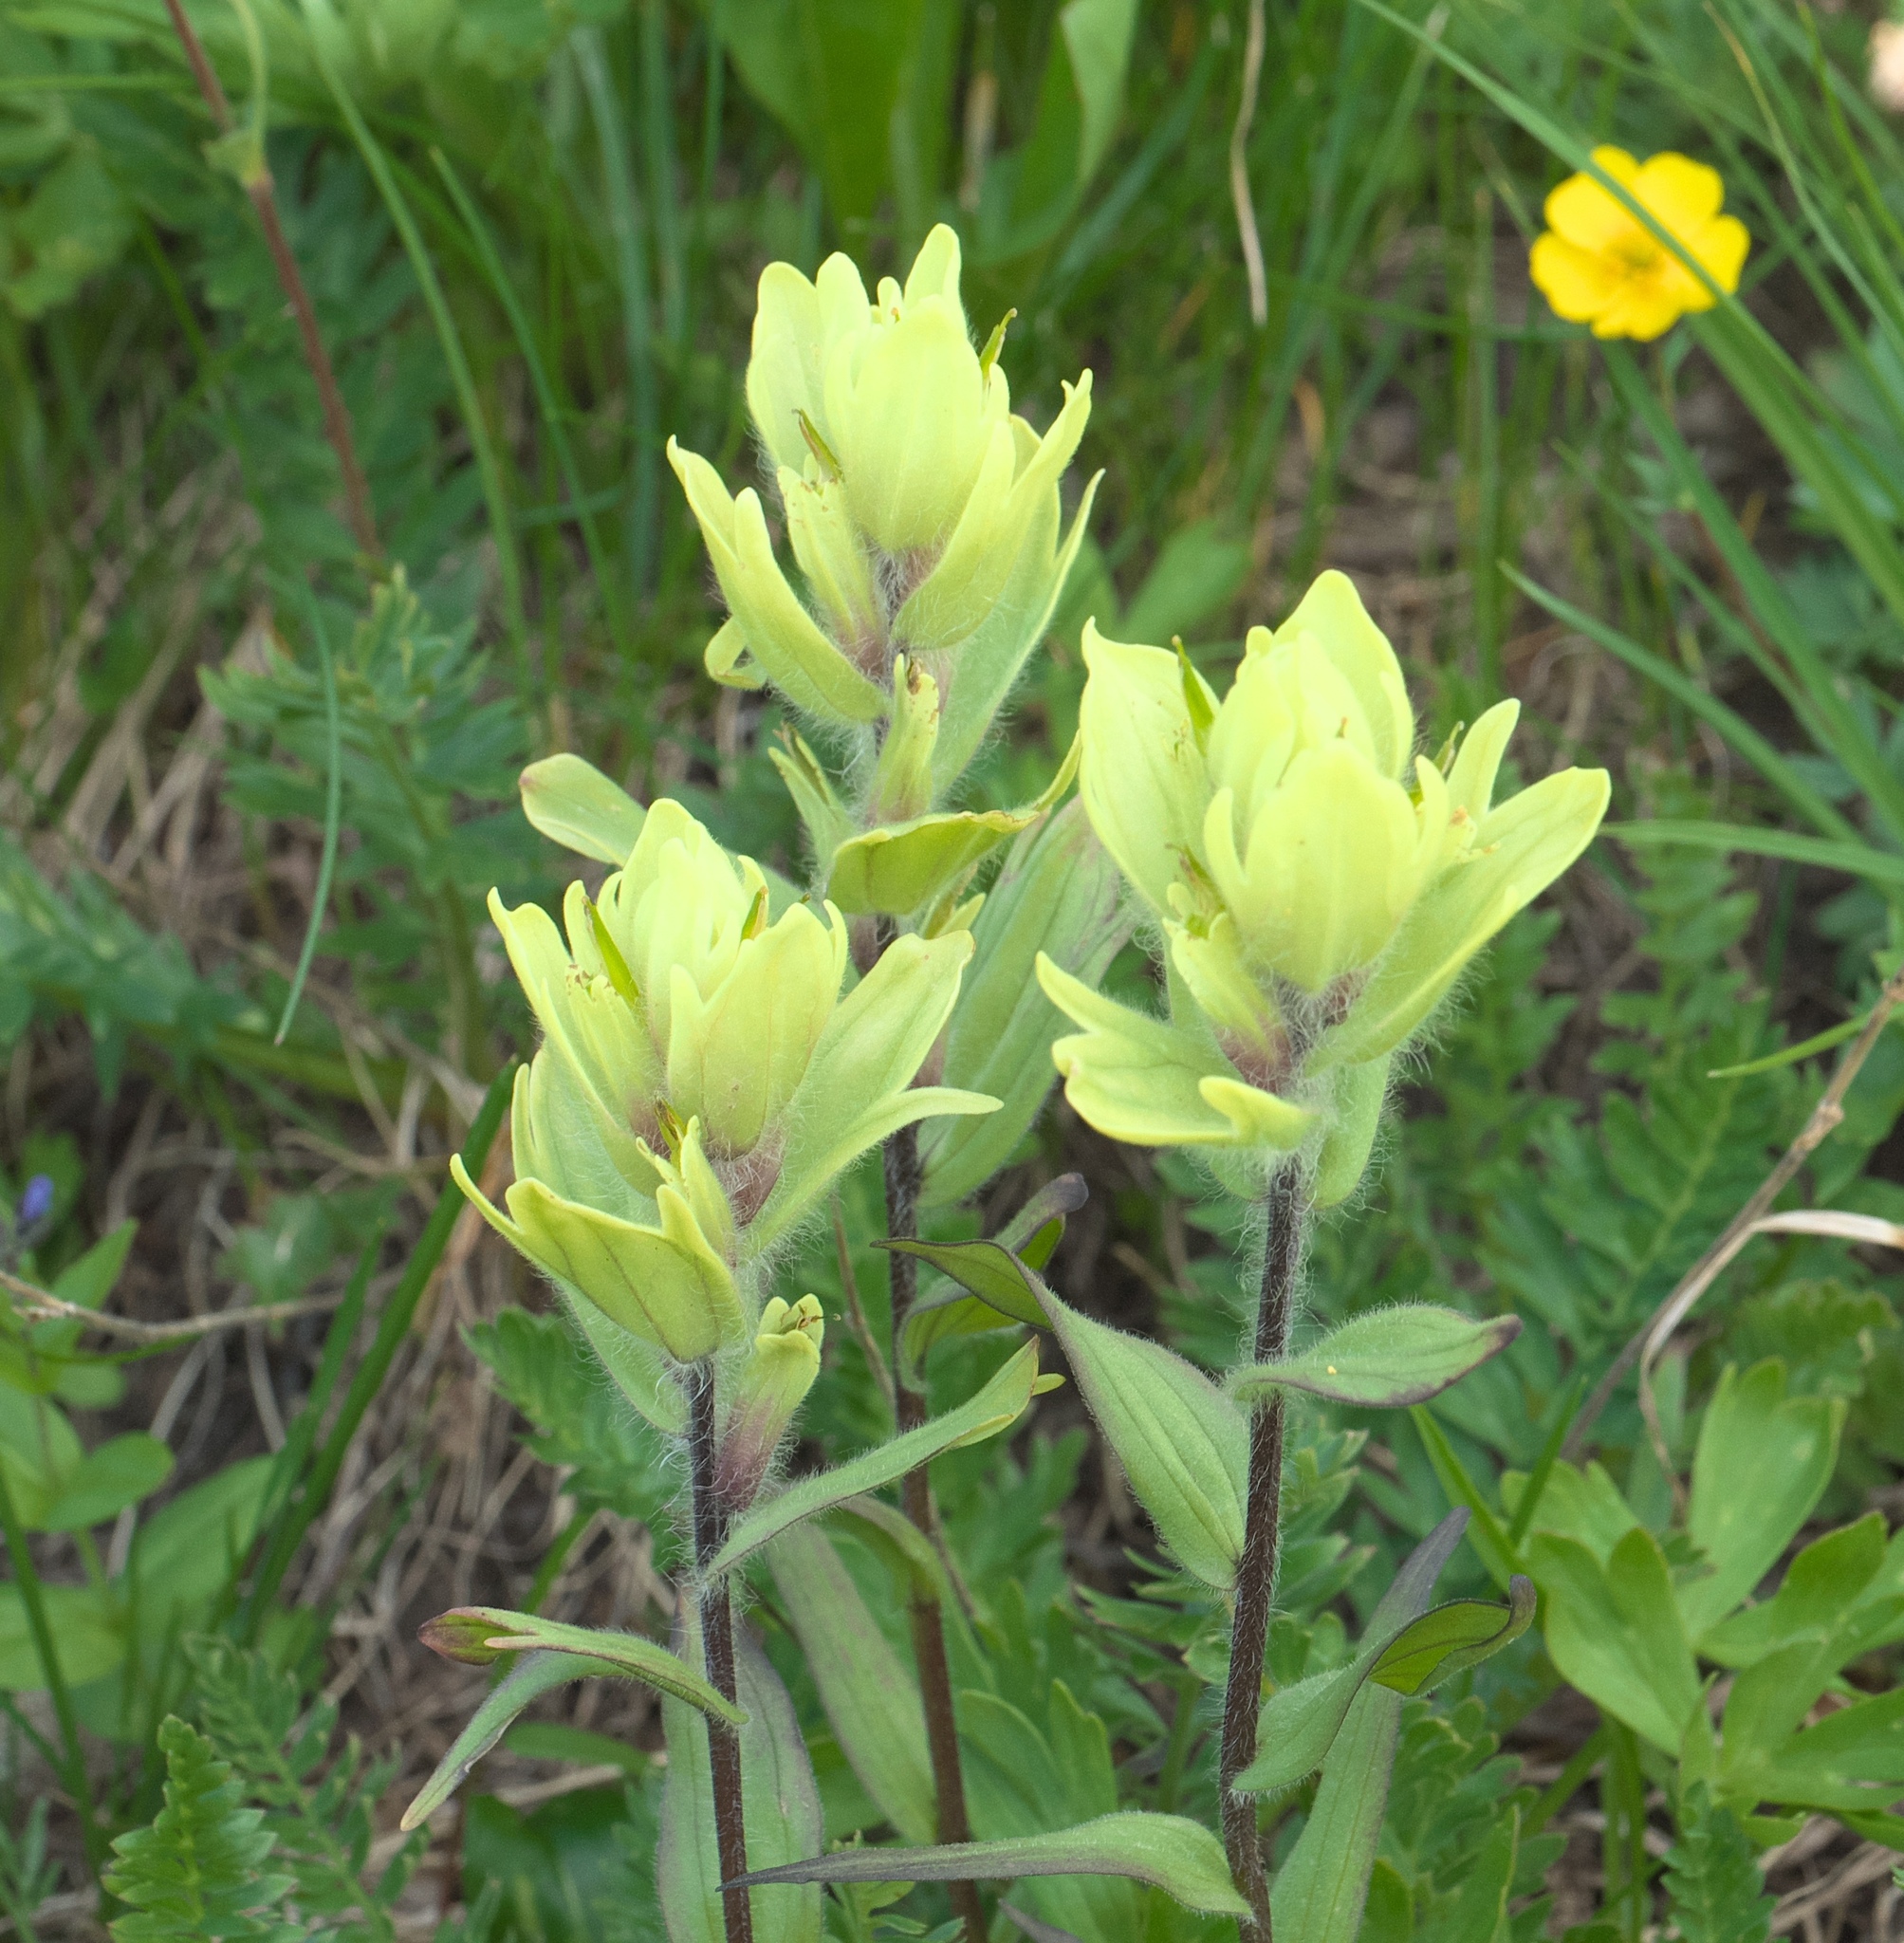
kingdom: Plantae
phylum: Tracheophyta
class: Magnoliopsida
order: Lamiales
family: Orobanchaceae
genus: Castilleja
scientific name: Castilleja occidentalis
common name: Western paintbrush
